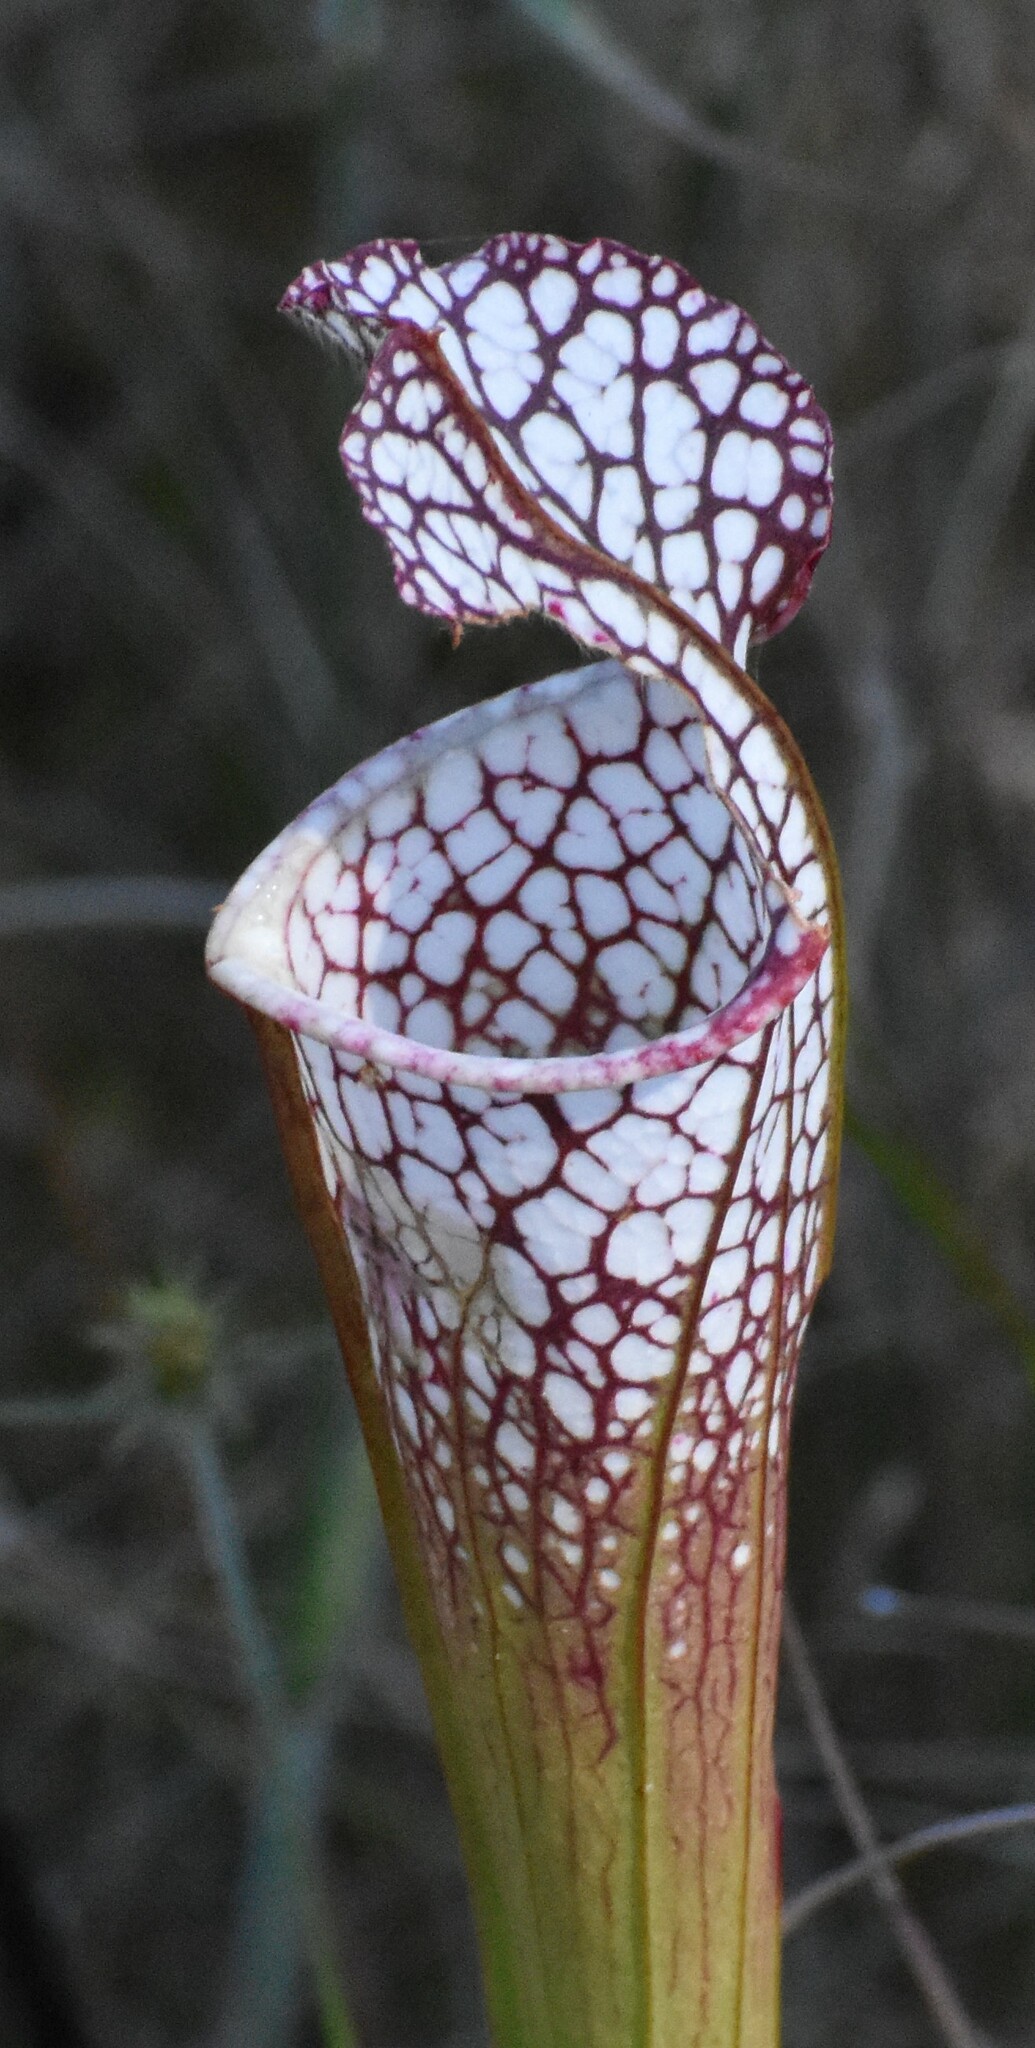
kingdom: Plantae
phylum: Tracheophyta
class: Magnoliopsida
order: Ericales
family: Sarraceniaceae
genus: Sarracenia
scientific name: Sarracenia leucophylla
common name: Purple trumpetleaf
